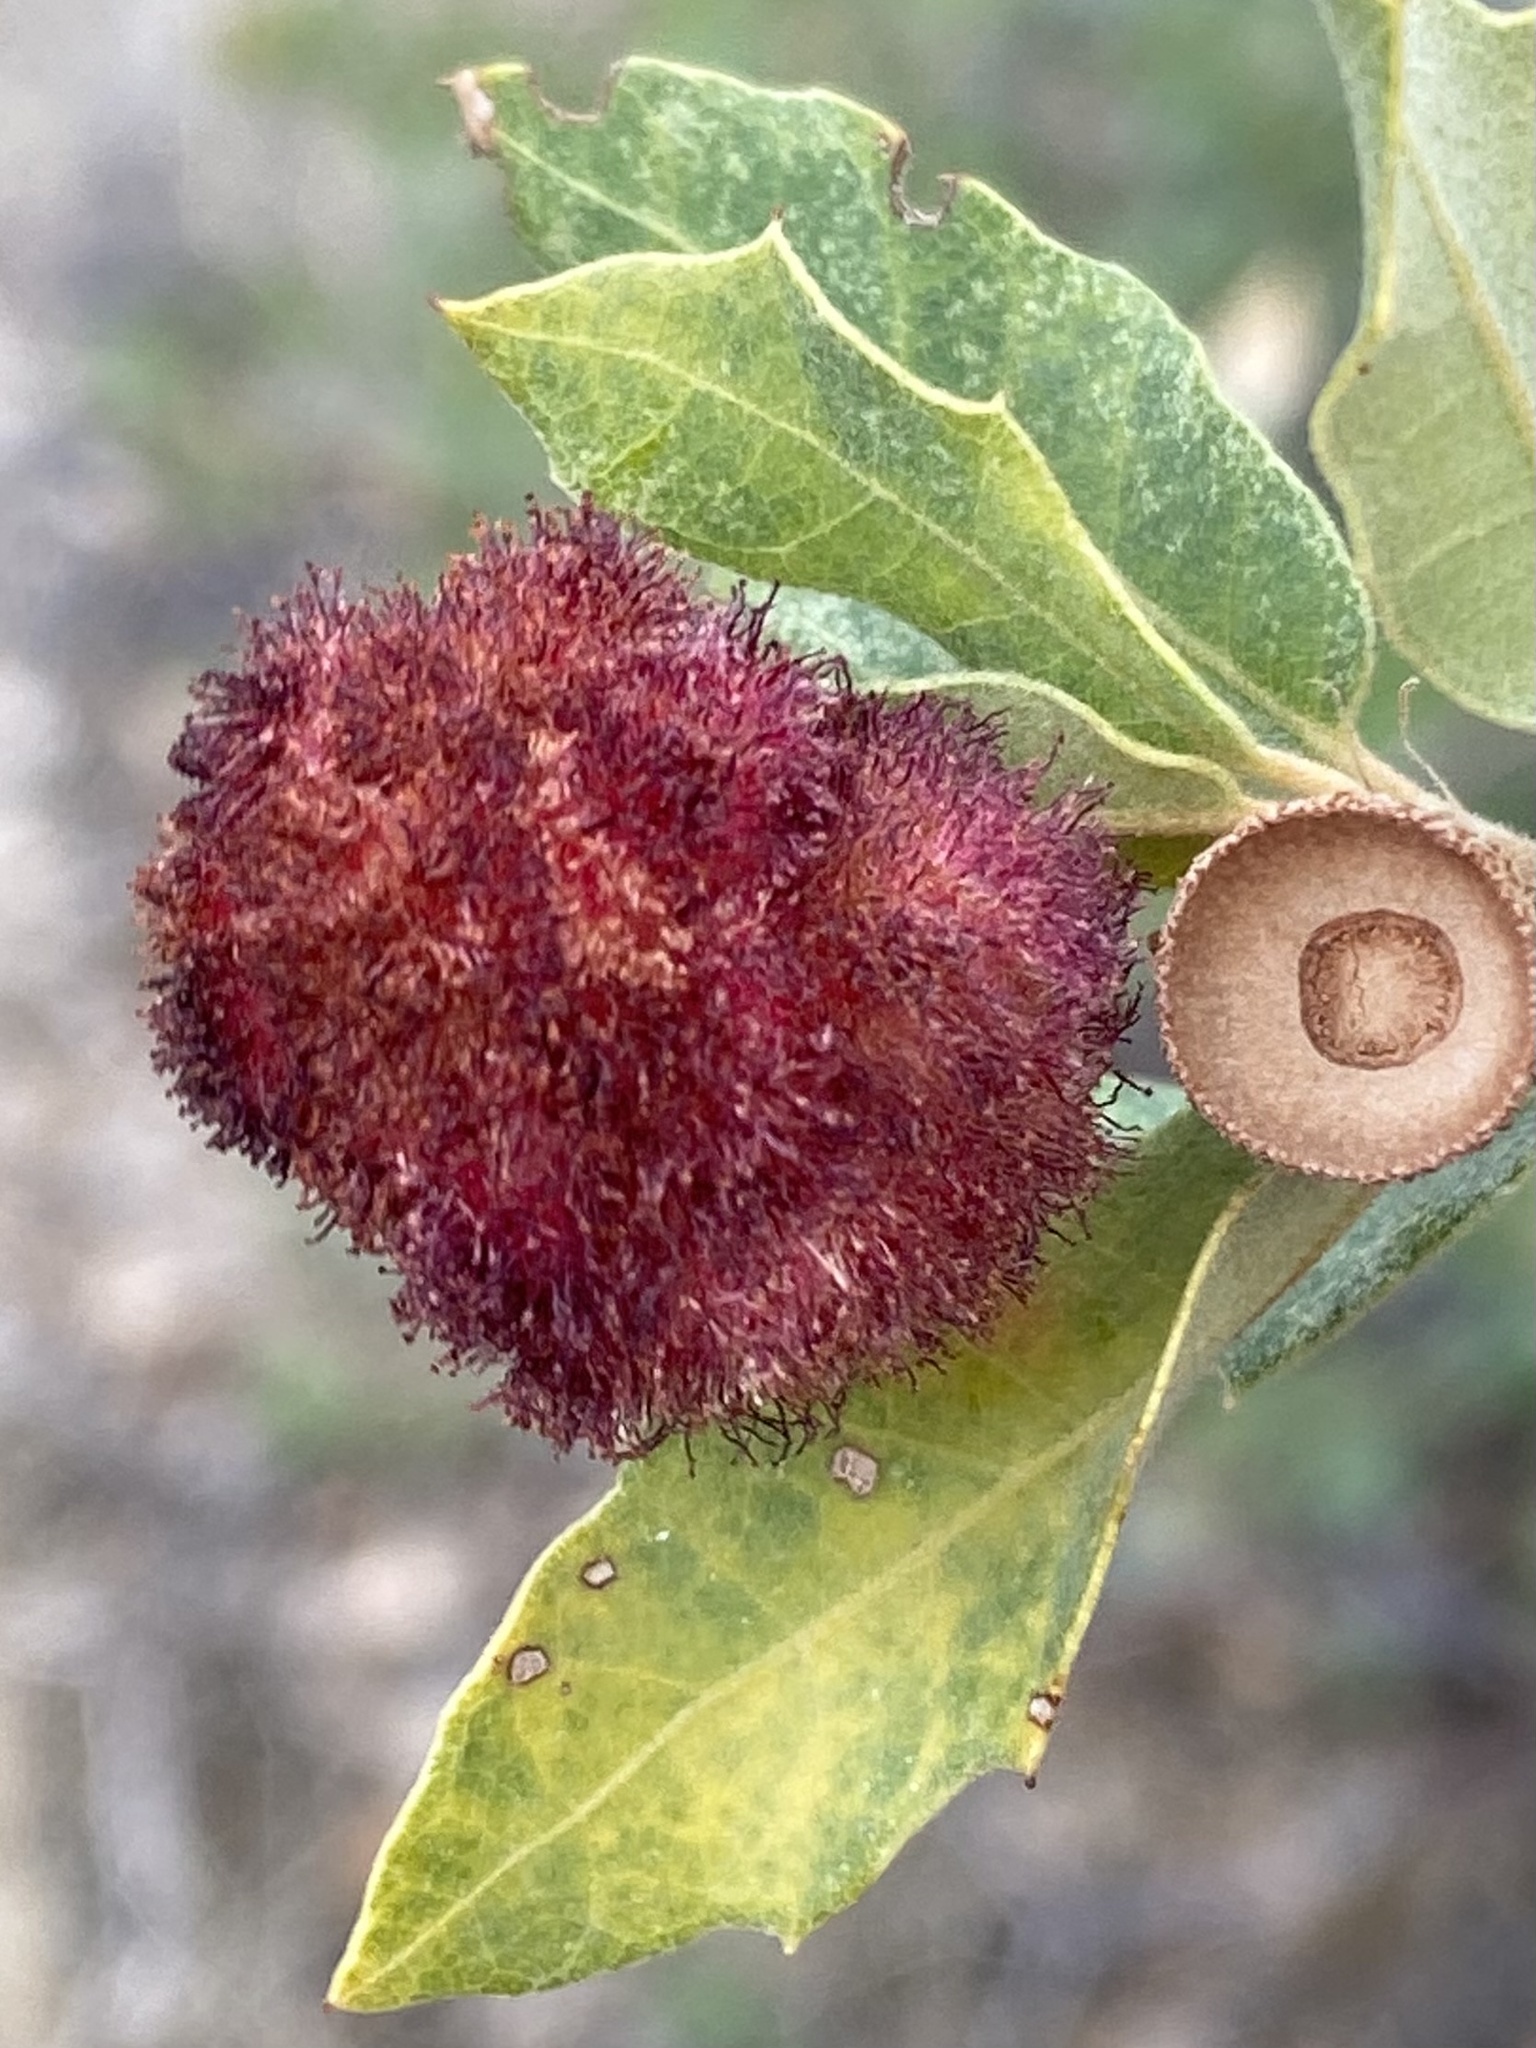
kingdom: Animalia
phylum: Arthropoda
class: Insecta
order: Hymenoptera
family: Cynipidae
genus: Andricus
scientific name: Andricus
